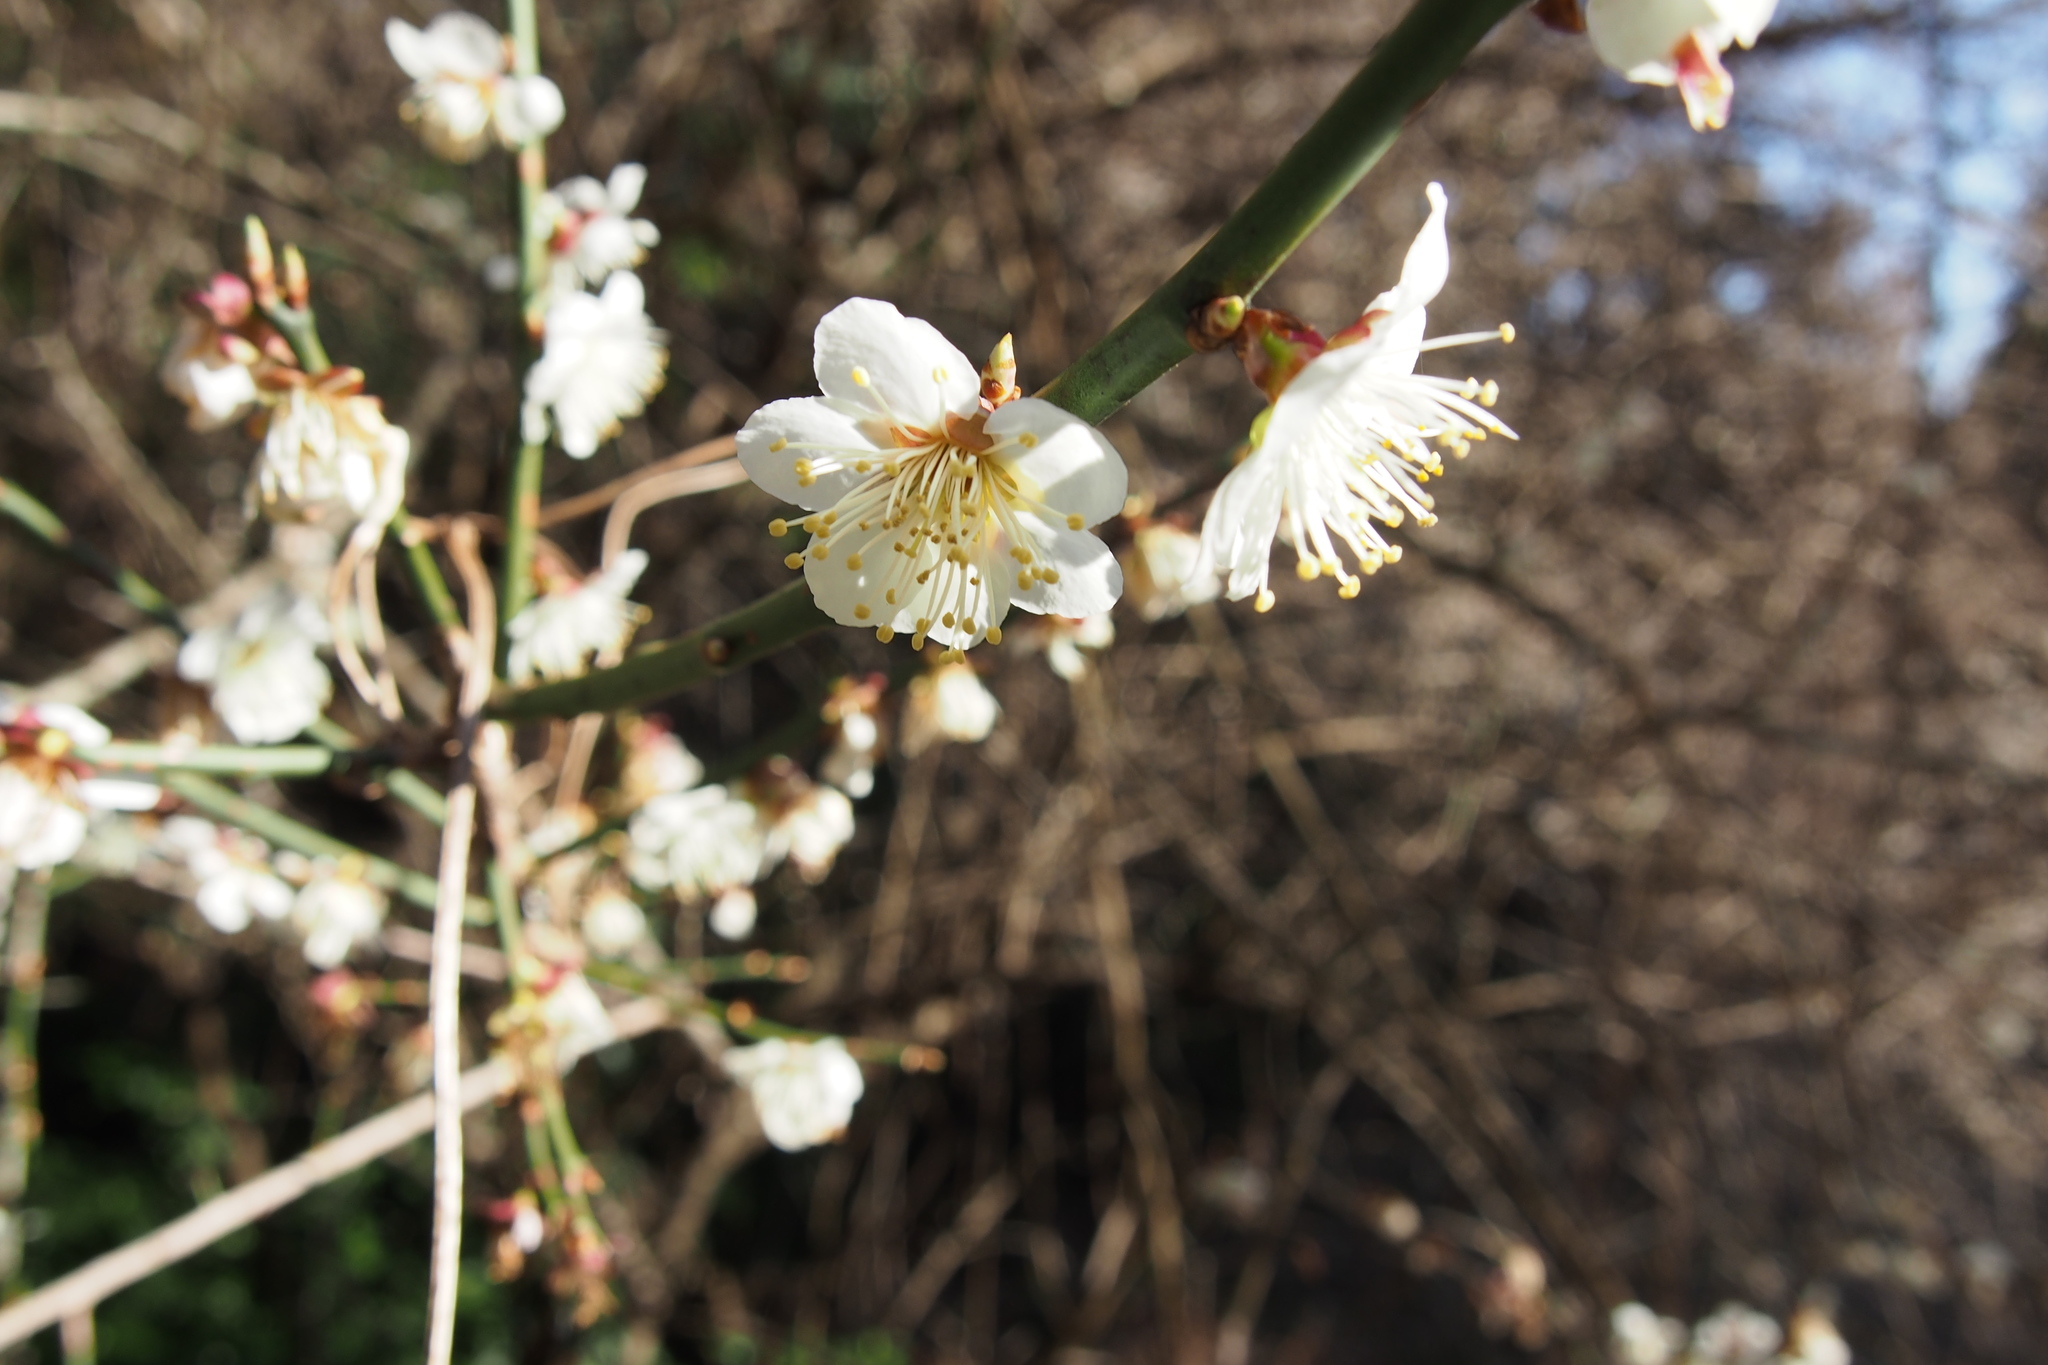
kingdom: Plantae
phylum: Tracheophyta
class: Magnoliopsida
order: Rosales
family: Rosaceae
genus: Prunus
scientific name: Prunus mume
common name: Japanese apricot
